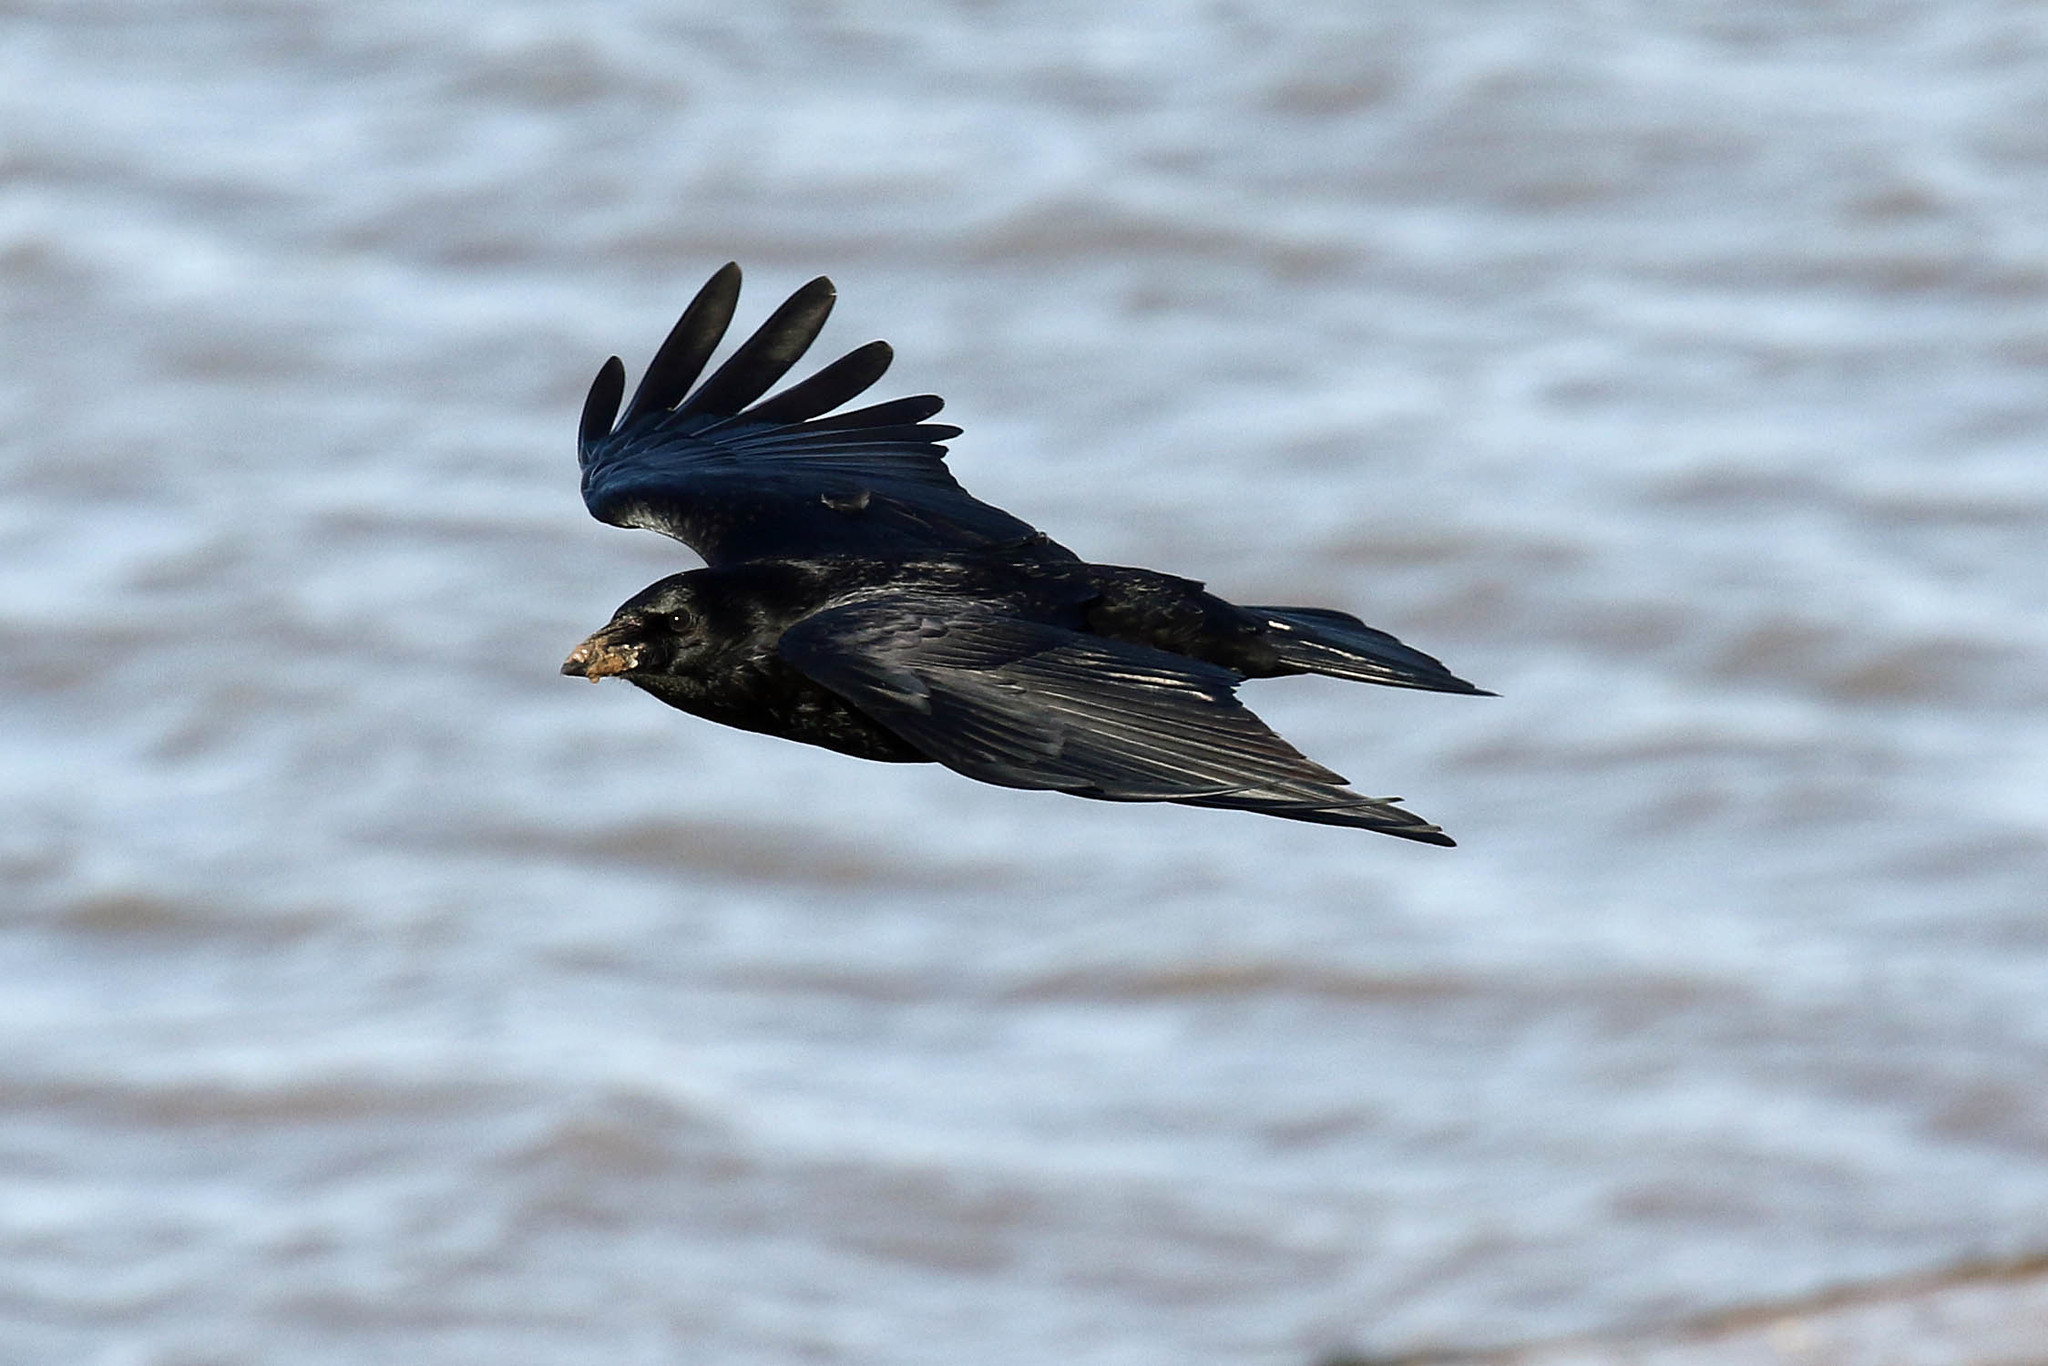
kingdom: Animalia
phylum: Chordata
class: Aves
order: Passeriformes
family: Corvidae
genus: Corvus
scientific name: Corvus corone
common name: Carrion crow
